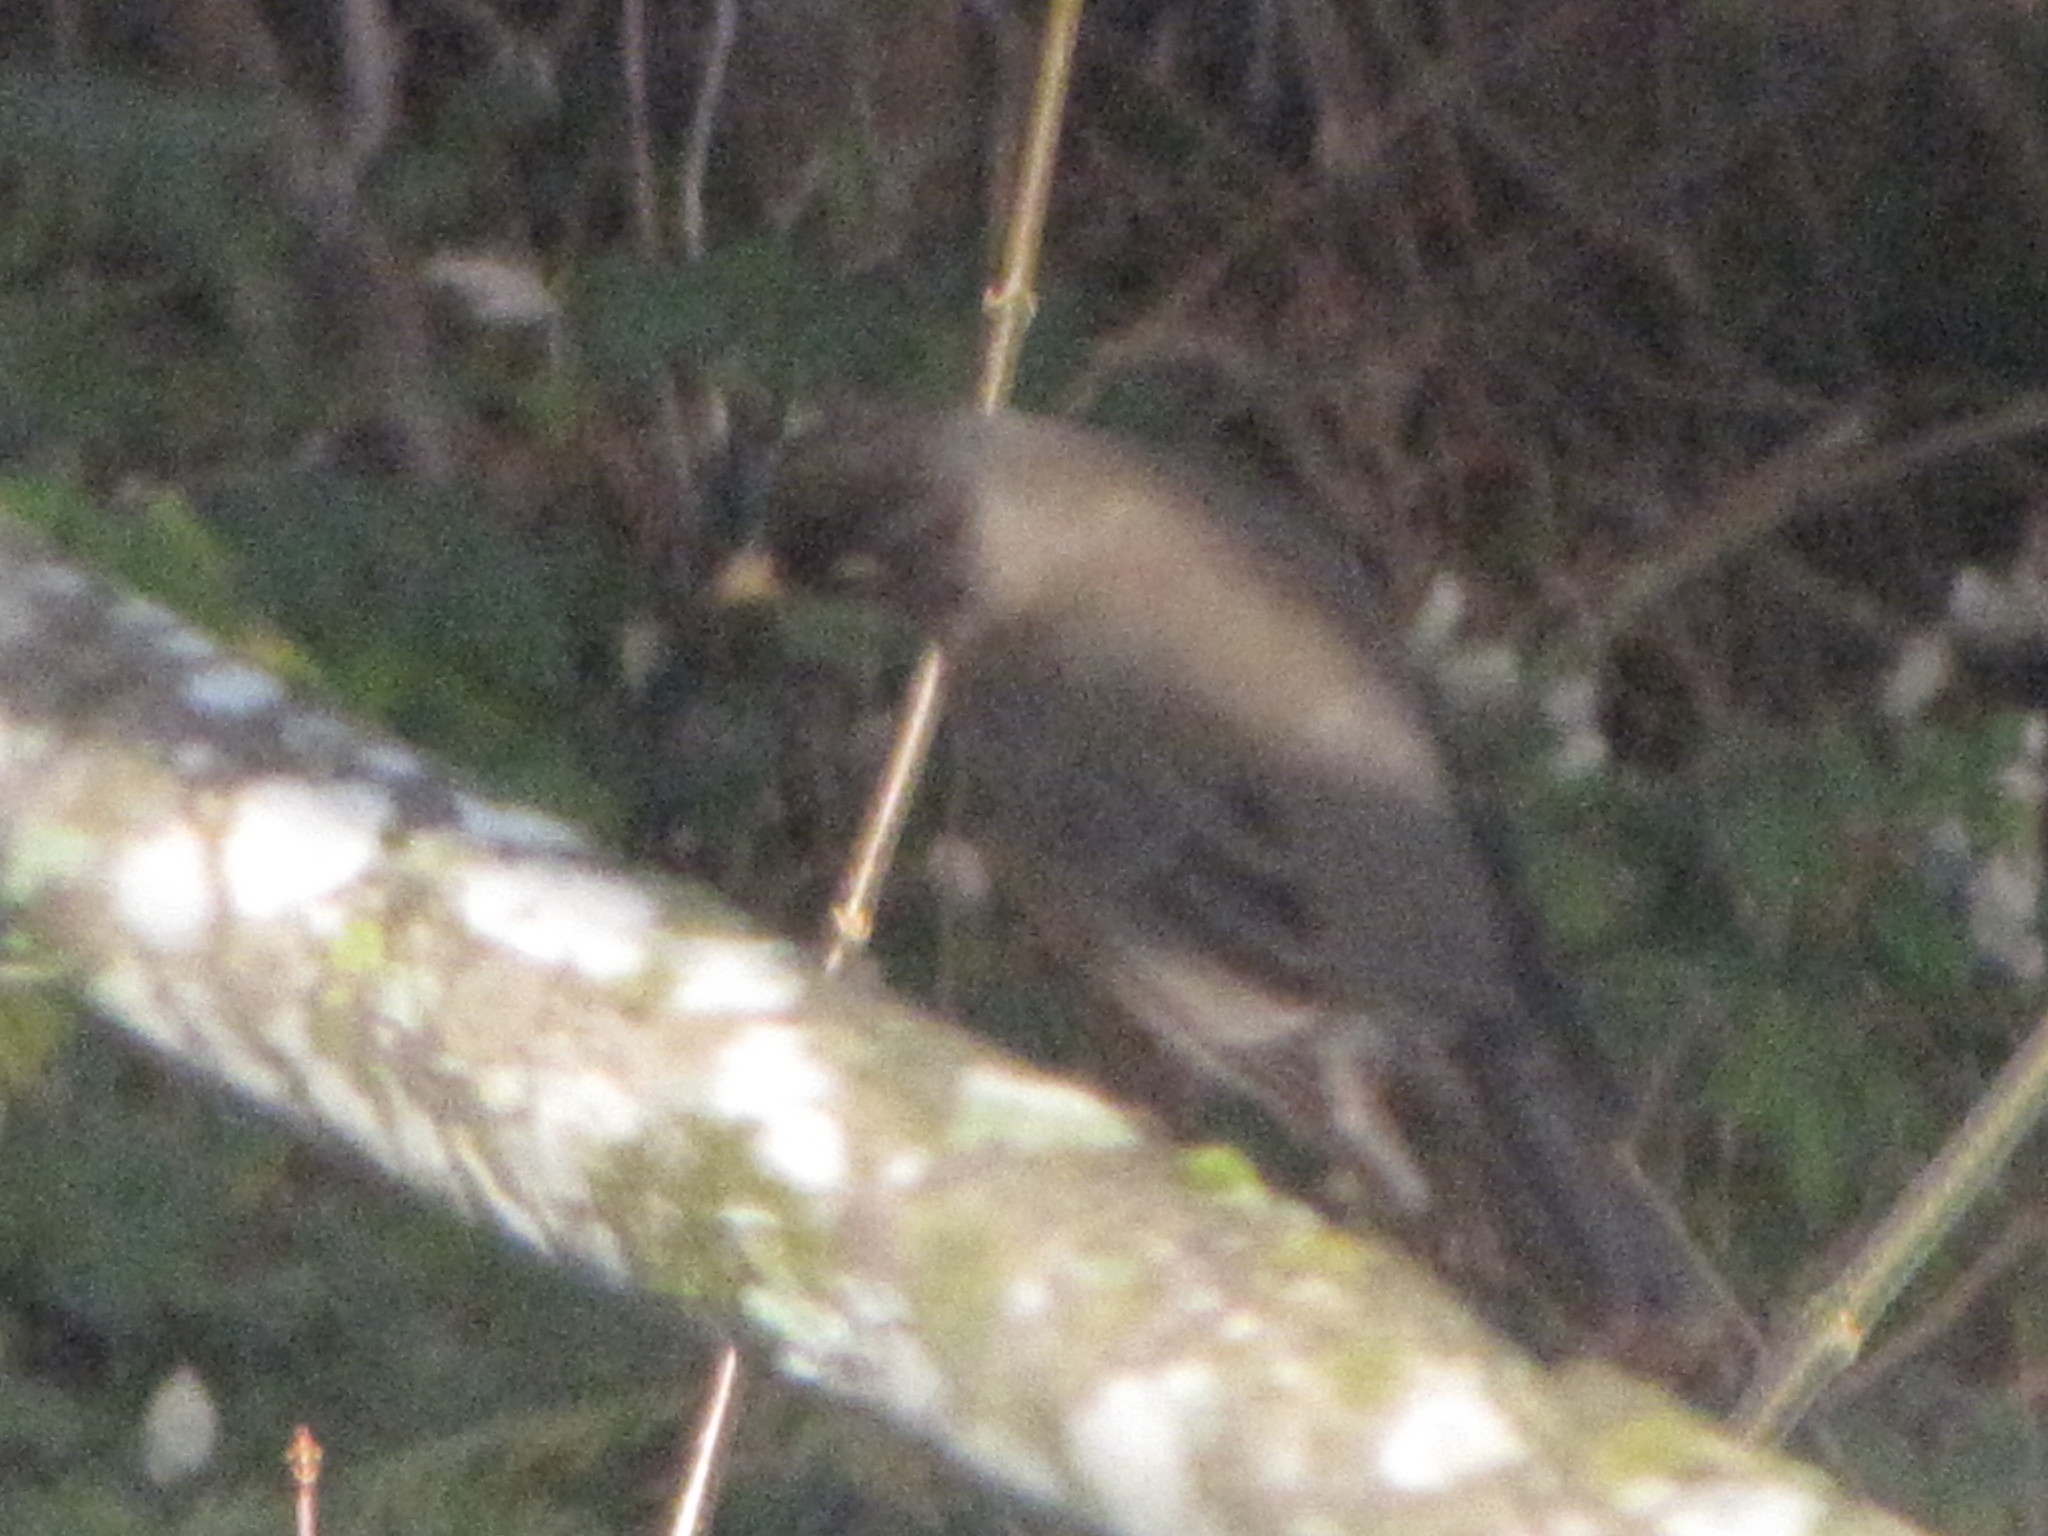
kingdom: Animalia
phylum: Chordata
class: Aves
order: Passeriformes
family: Turdidae
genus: Turdus
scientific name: Turdus migratorius
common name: American robin
